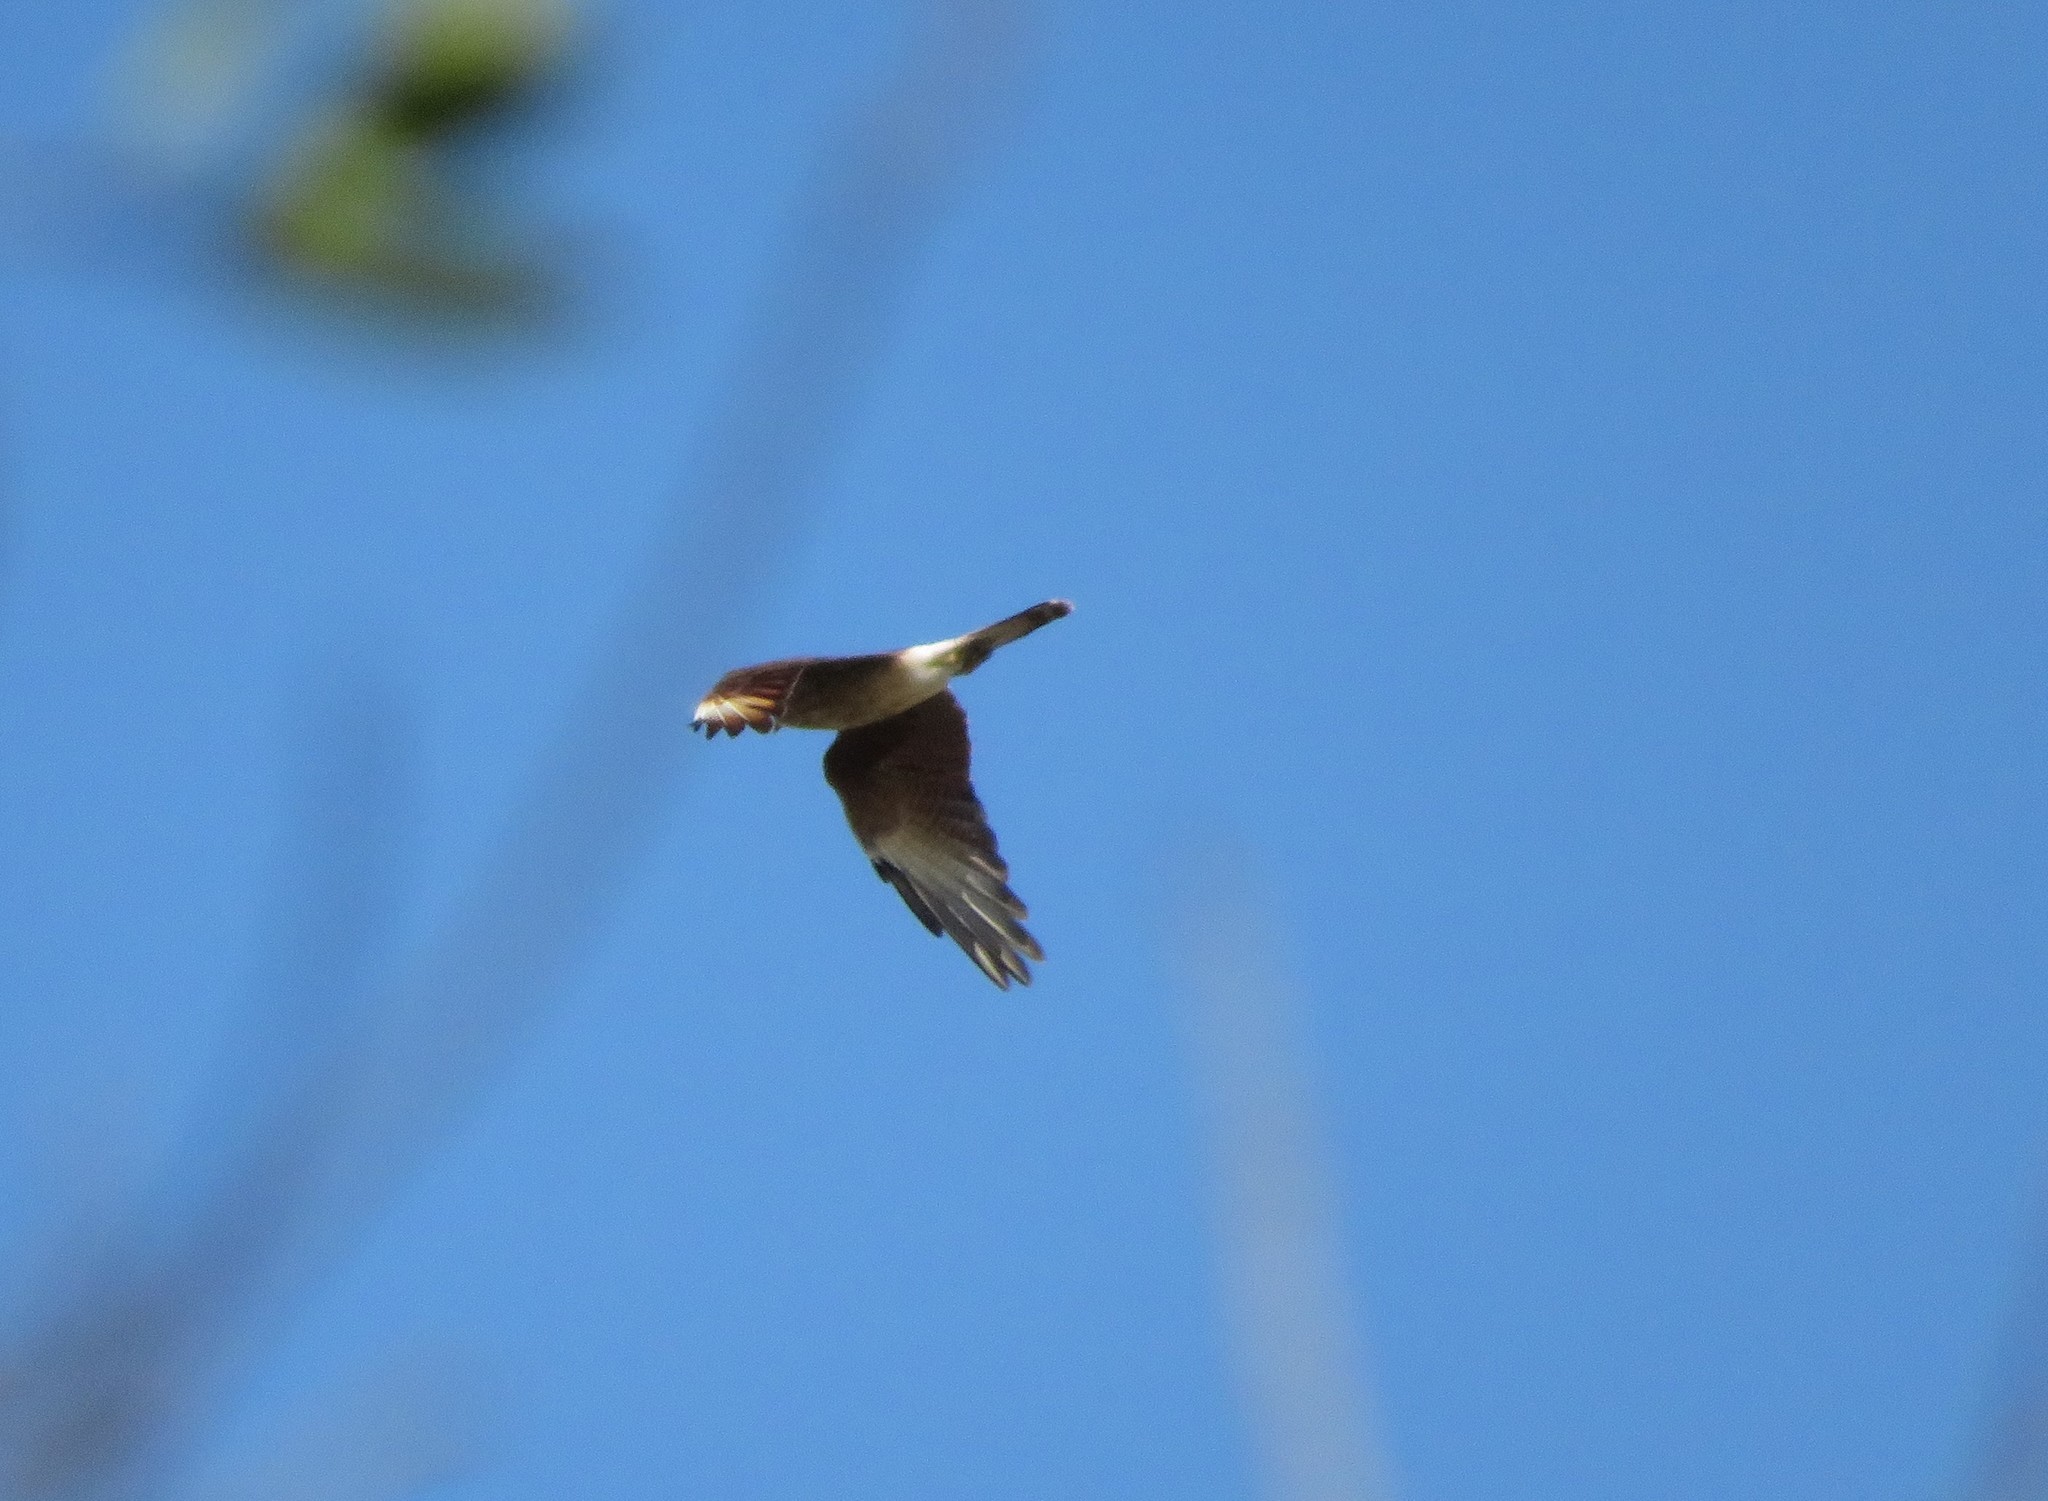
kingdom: Animalia
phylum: Chordata
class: Aves
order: Falconiformes
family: Falconidae
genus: Daptrius
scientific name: Daptrius
